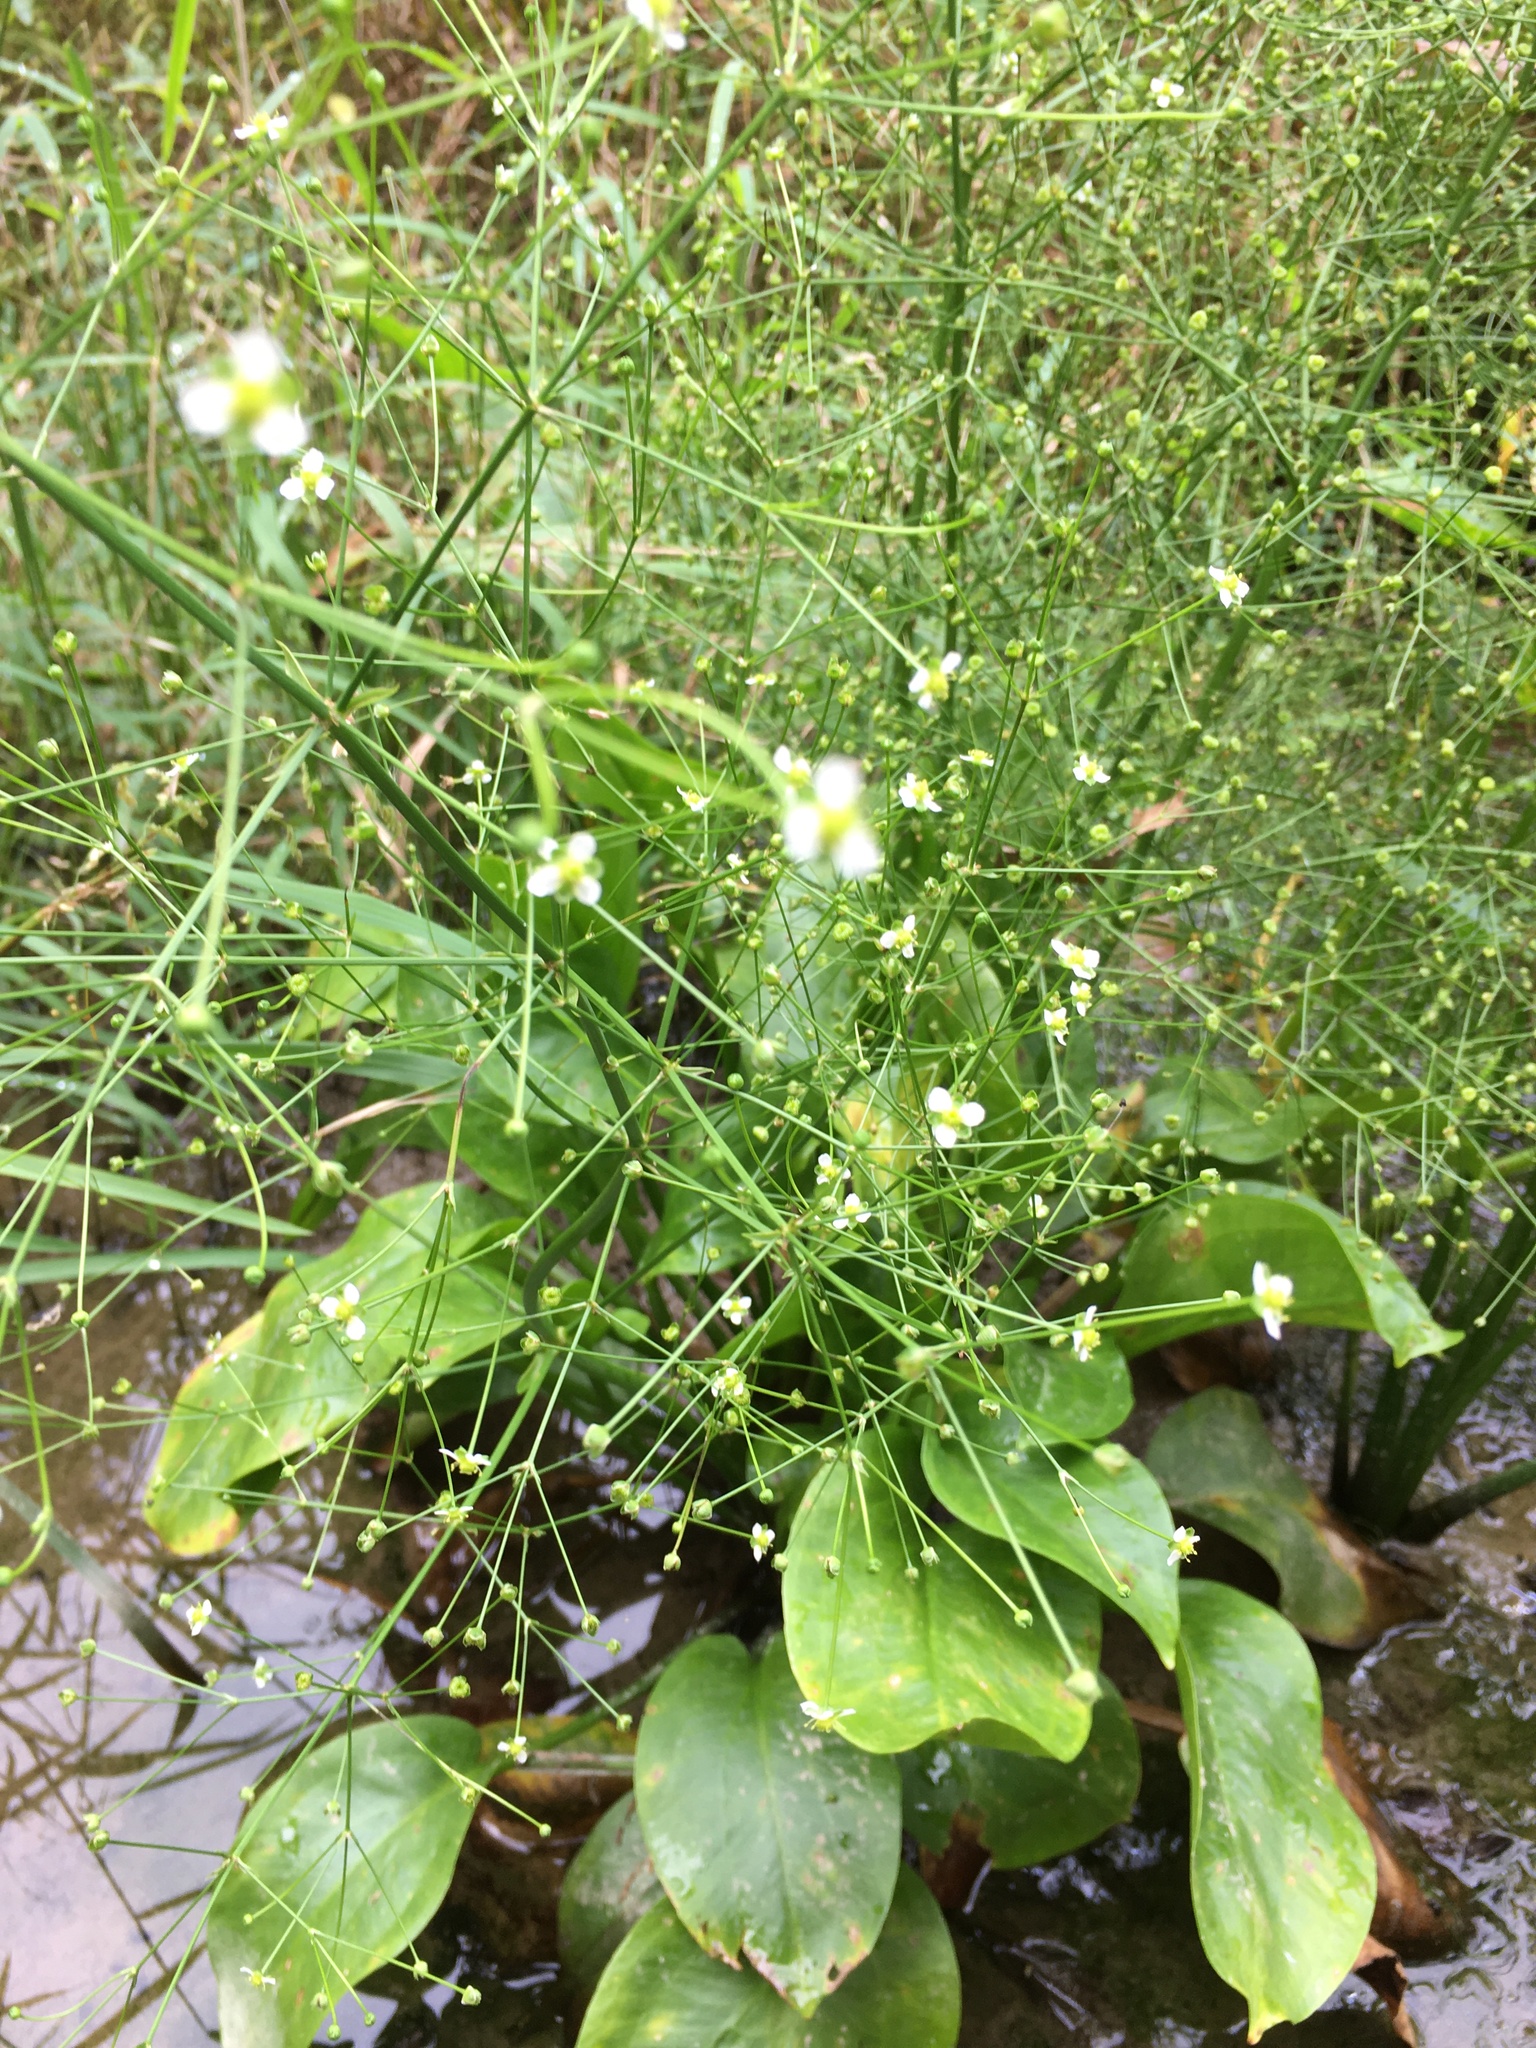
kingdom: Plantae
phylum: Tracheophyta
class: Liliopsida
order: Alismatales
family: Alismataceae
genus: Alisma
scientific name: Alisma subcordatum
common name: Southern water-plantain
